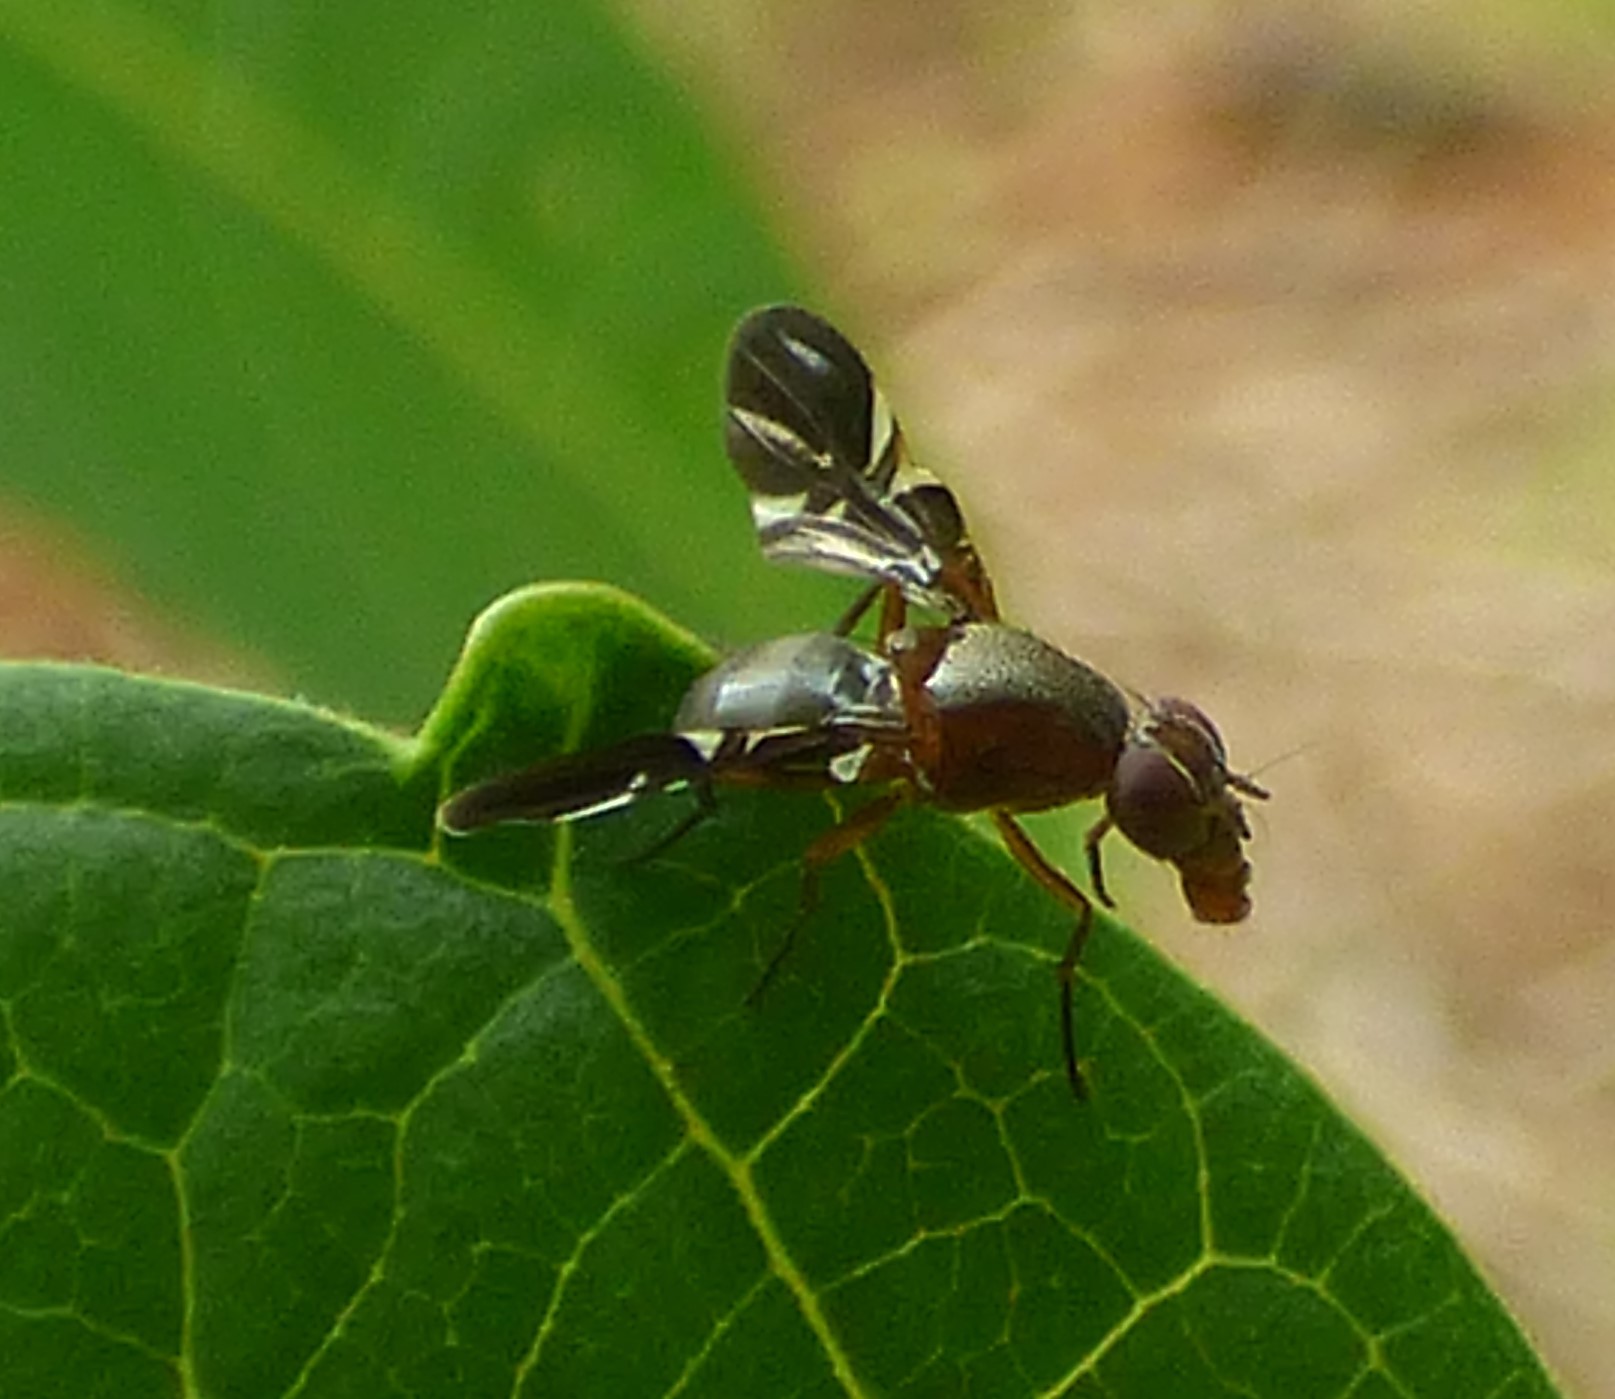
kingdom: Animalia
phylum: Arthropoda
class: Insecta
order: Diptera
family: Ulidiidae
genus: Delphinia
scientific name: Delphinia picta
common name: Common picture-winged fly
